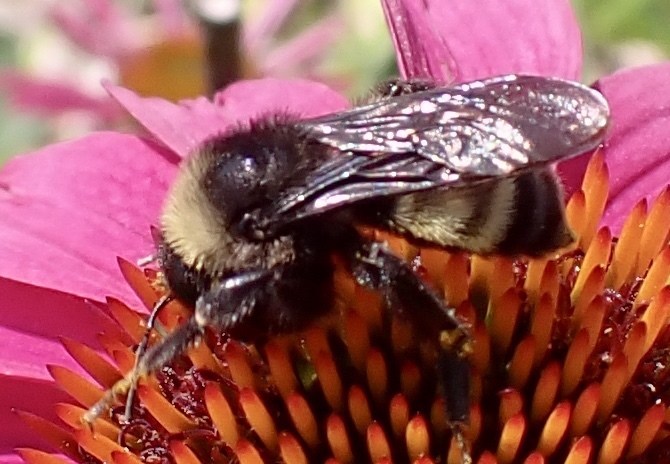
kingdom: Animalia
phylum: Arthropoda
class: Insecta
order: Hymenoptera
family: Apidae
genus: Bombus
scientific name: Bombus pensylvanicus
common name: Bumble bee
